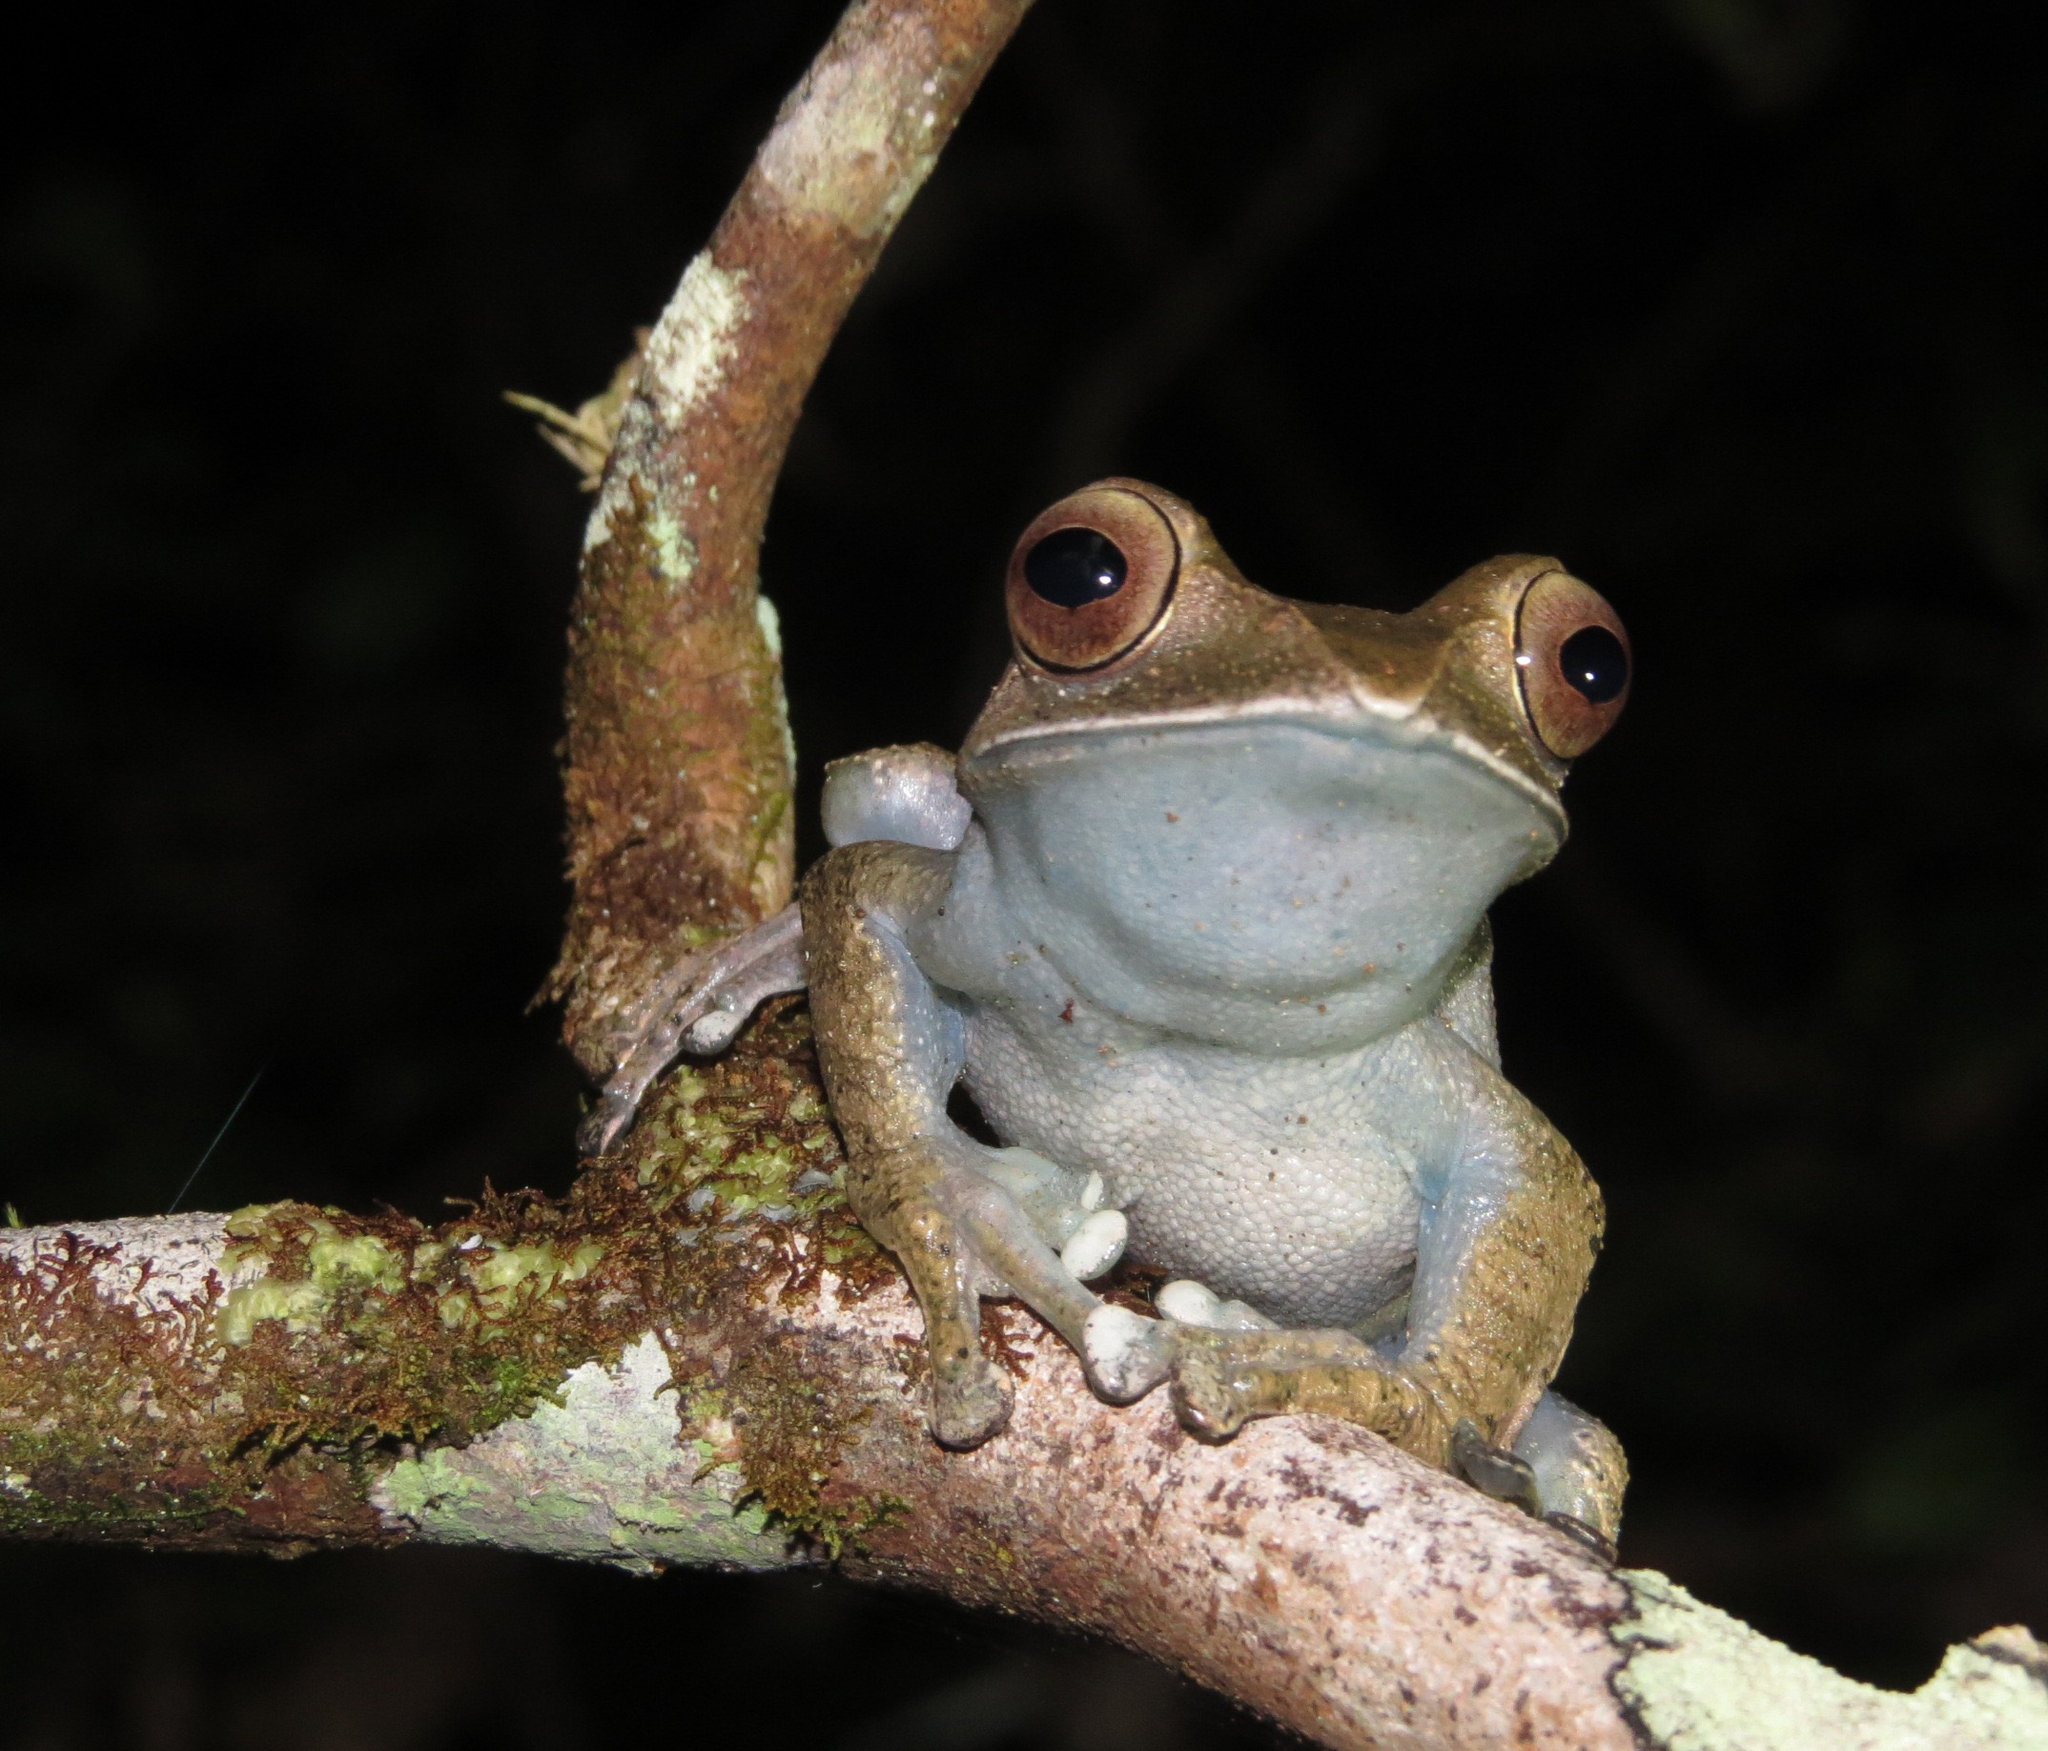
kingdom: Animalia
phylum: Chordata
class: Amphibia
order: Anura
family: Mantellidae
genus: Boophis
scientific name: Boophis madagascariensis
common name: Madagascar bright-eyed frog
